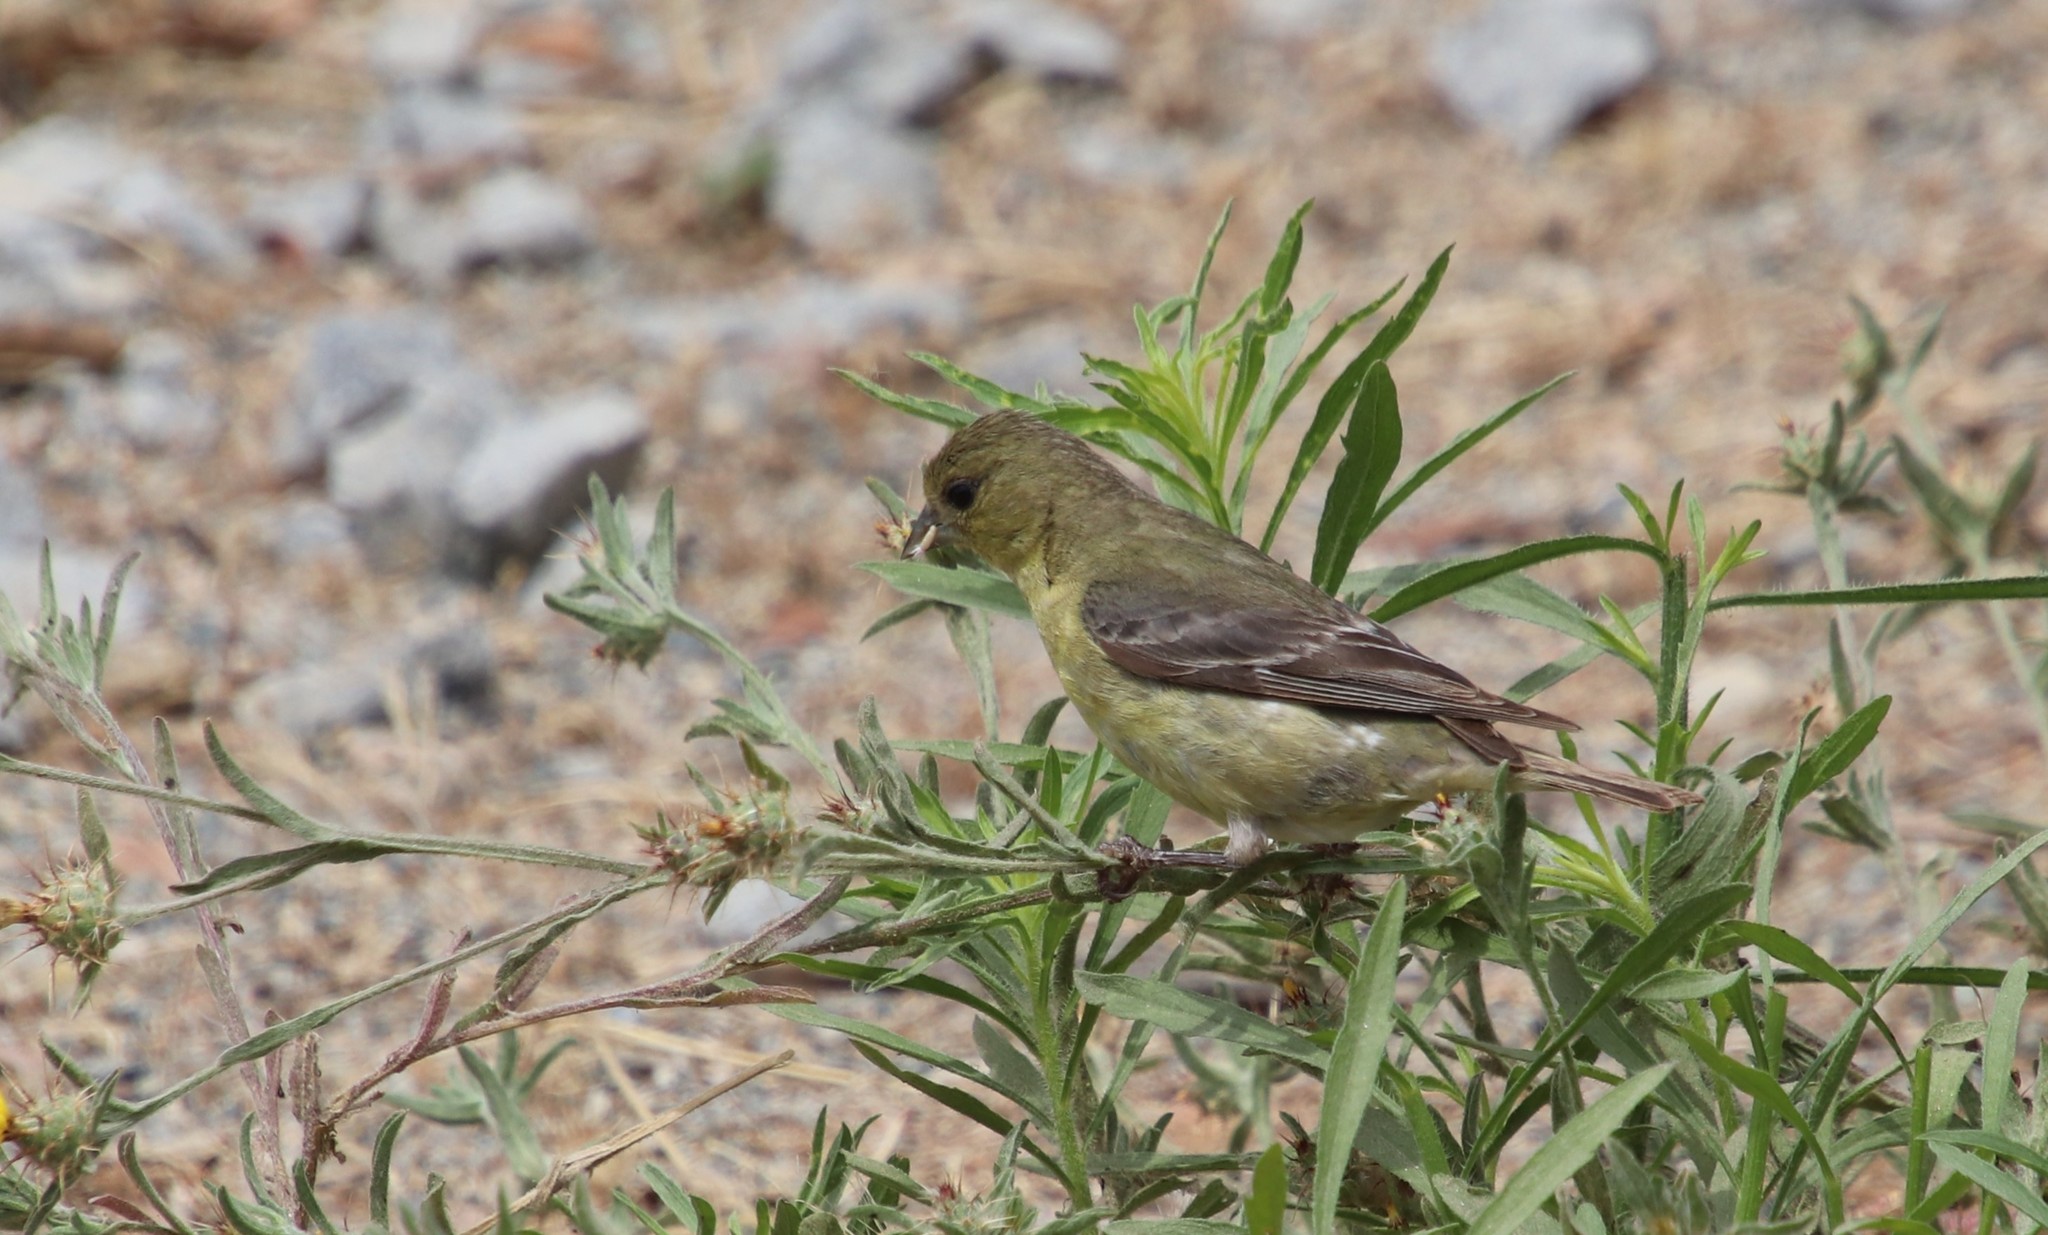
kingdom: Animalia
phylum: Chordata
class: Aves
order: Passeriformes
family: Fringillidae
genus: Spinus
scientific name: Spinus psaltria
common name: Lesser goldfinch
